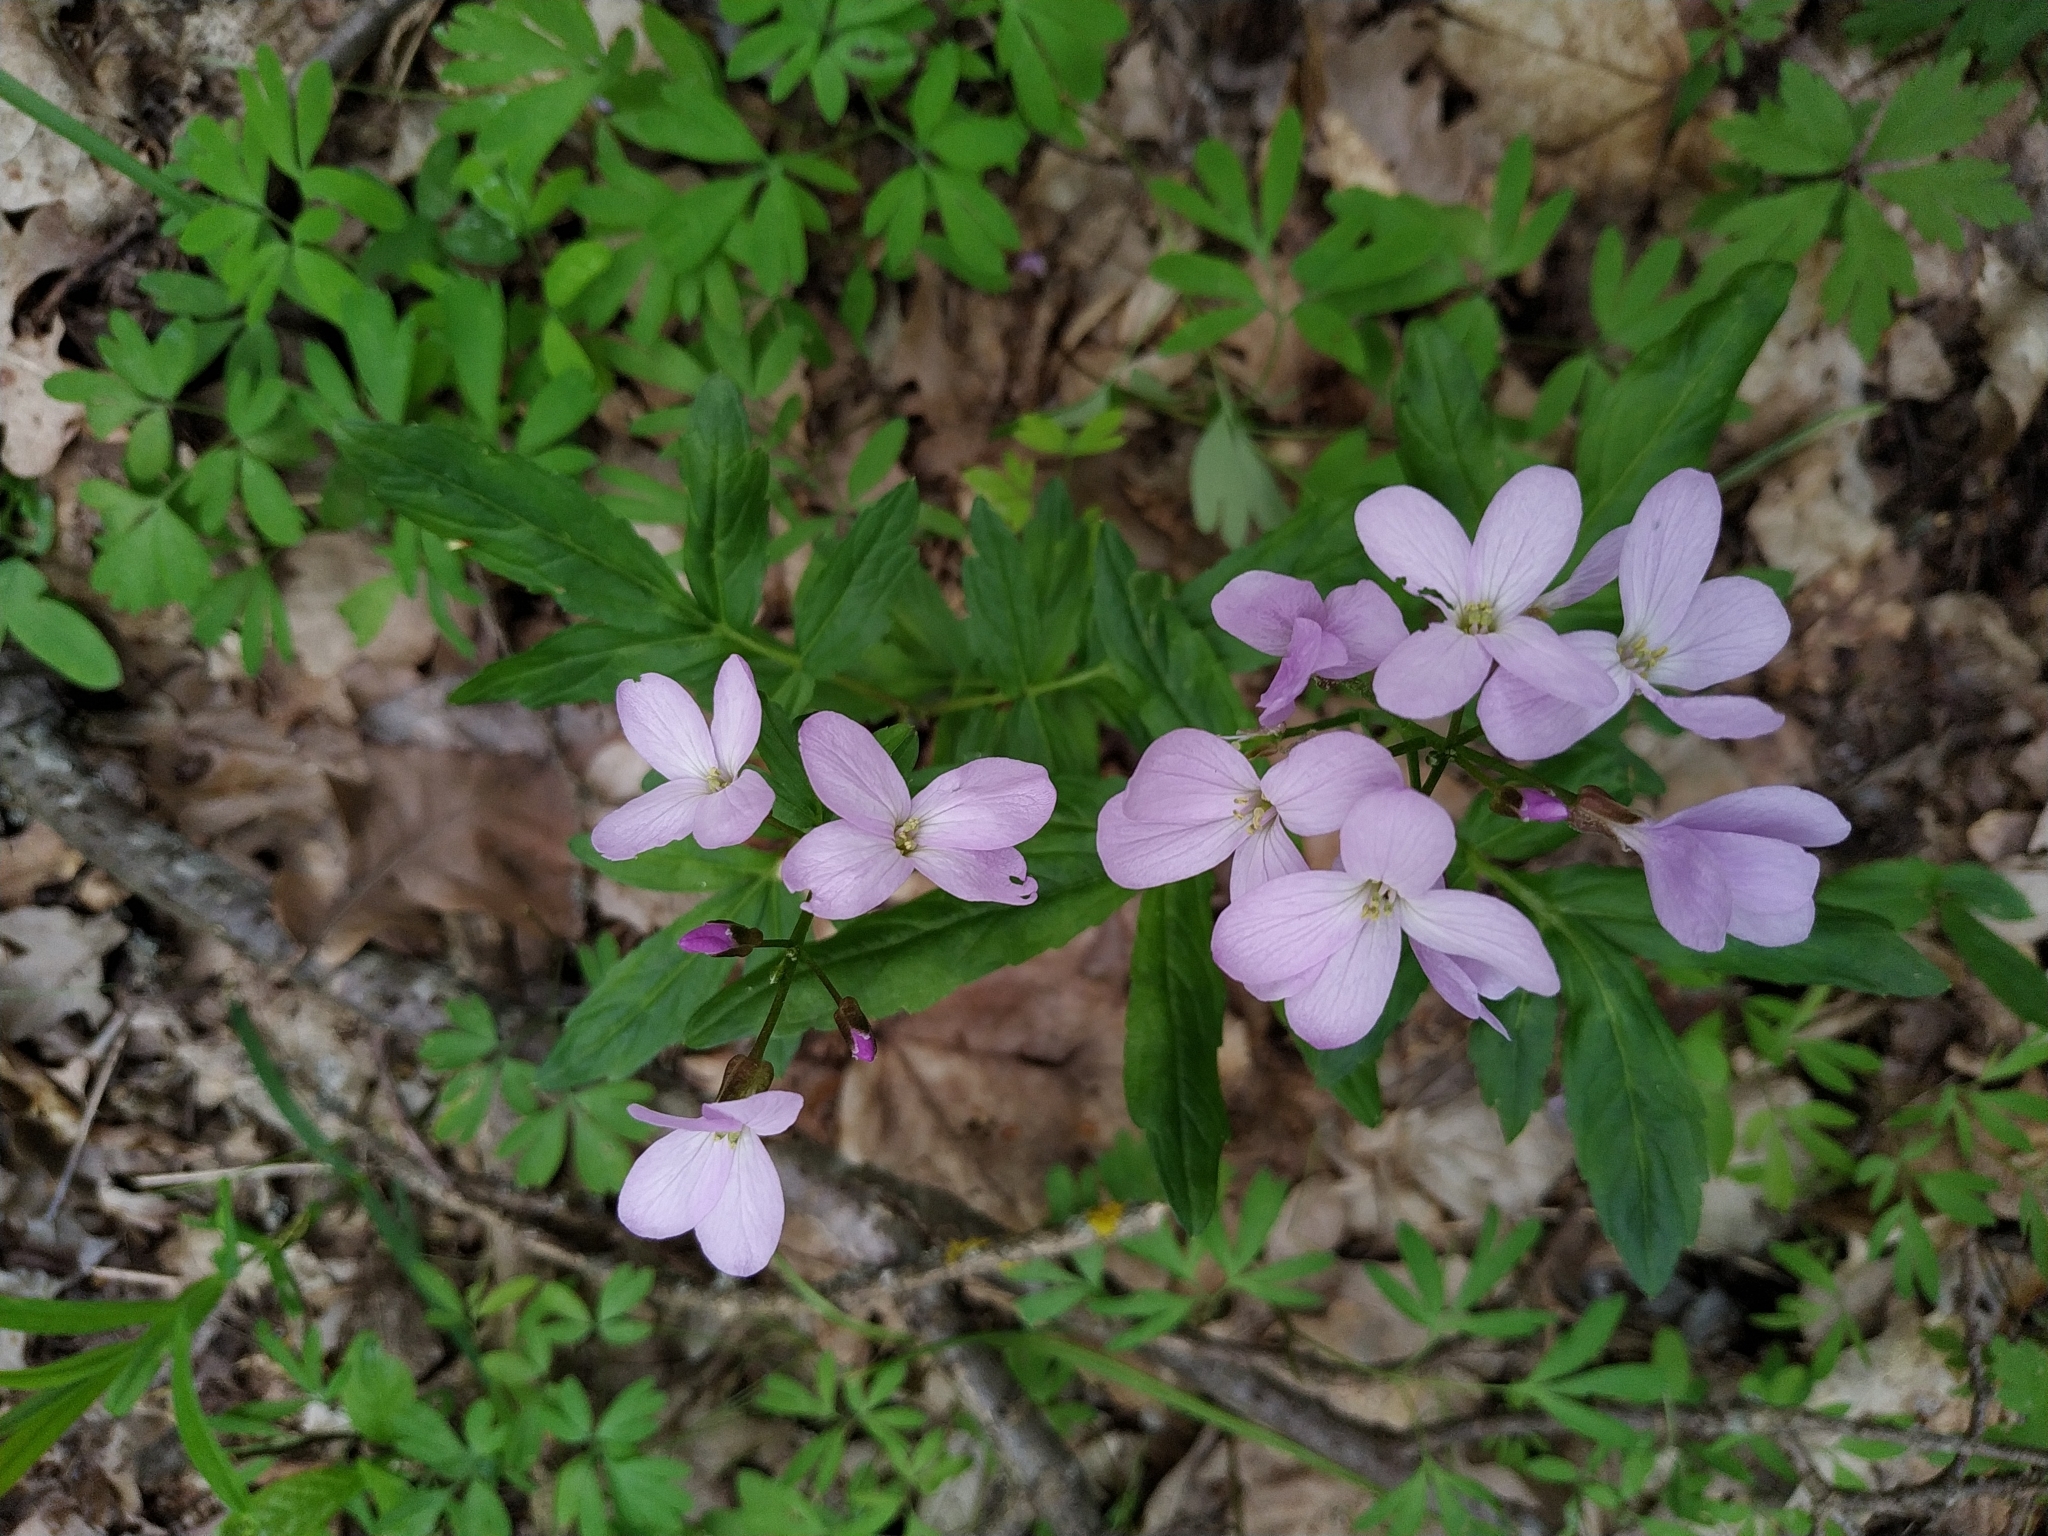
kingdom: Plantae
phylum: Tracheophyta
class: Magnoliopsida
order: Brassicales
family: Brassicaceae
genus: Cardamine
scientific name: Cardamine quinquefolia
